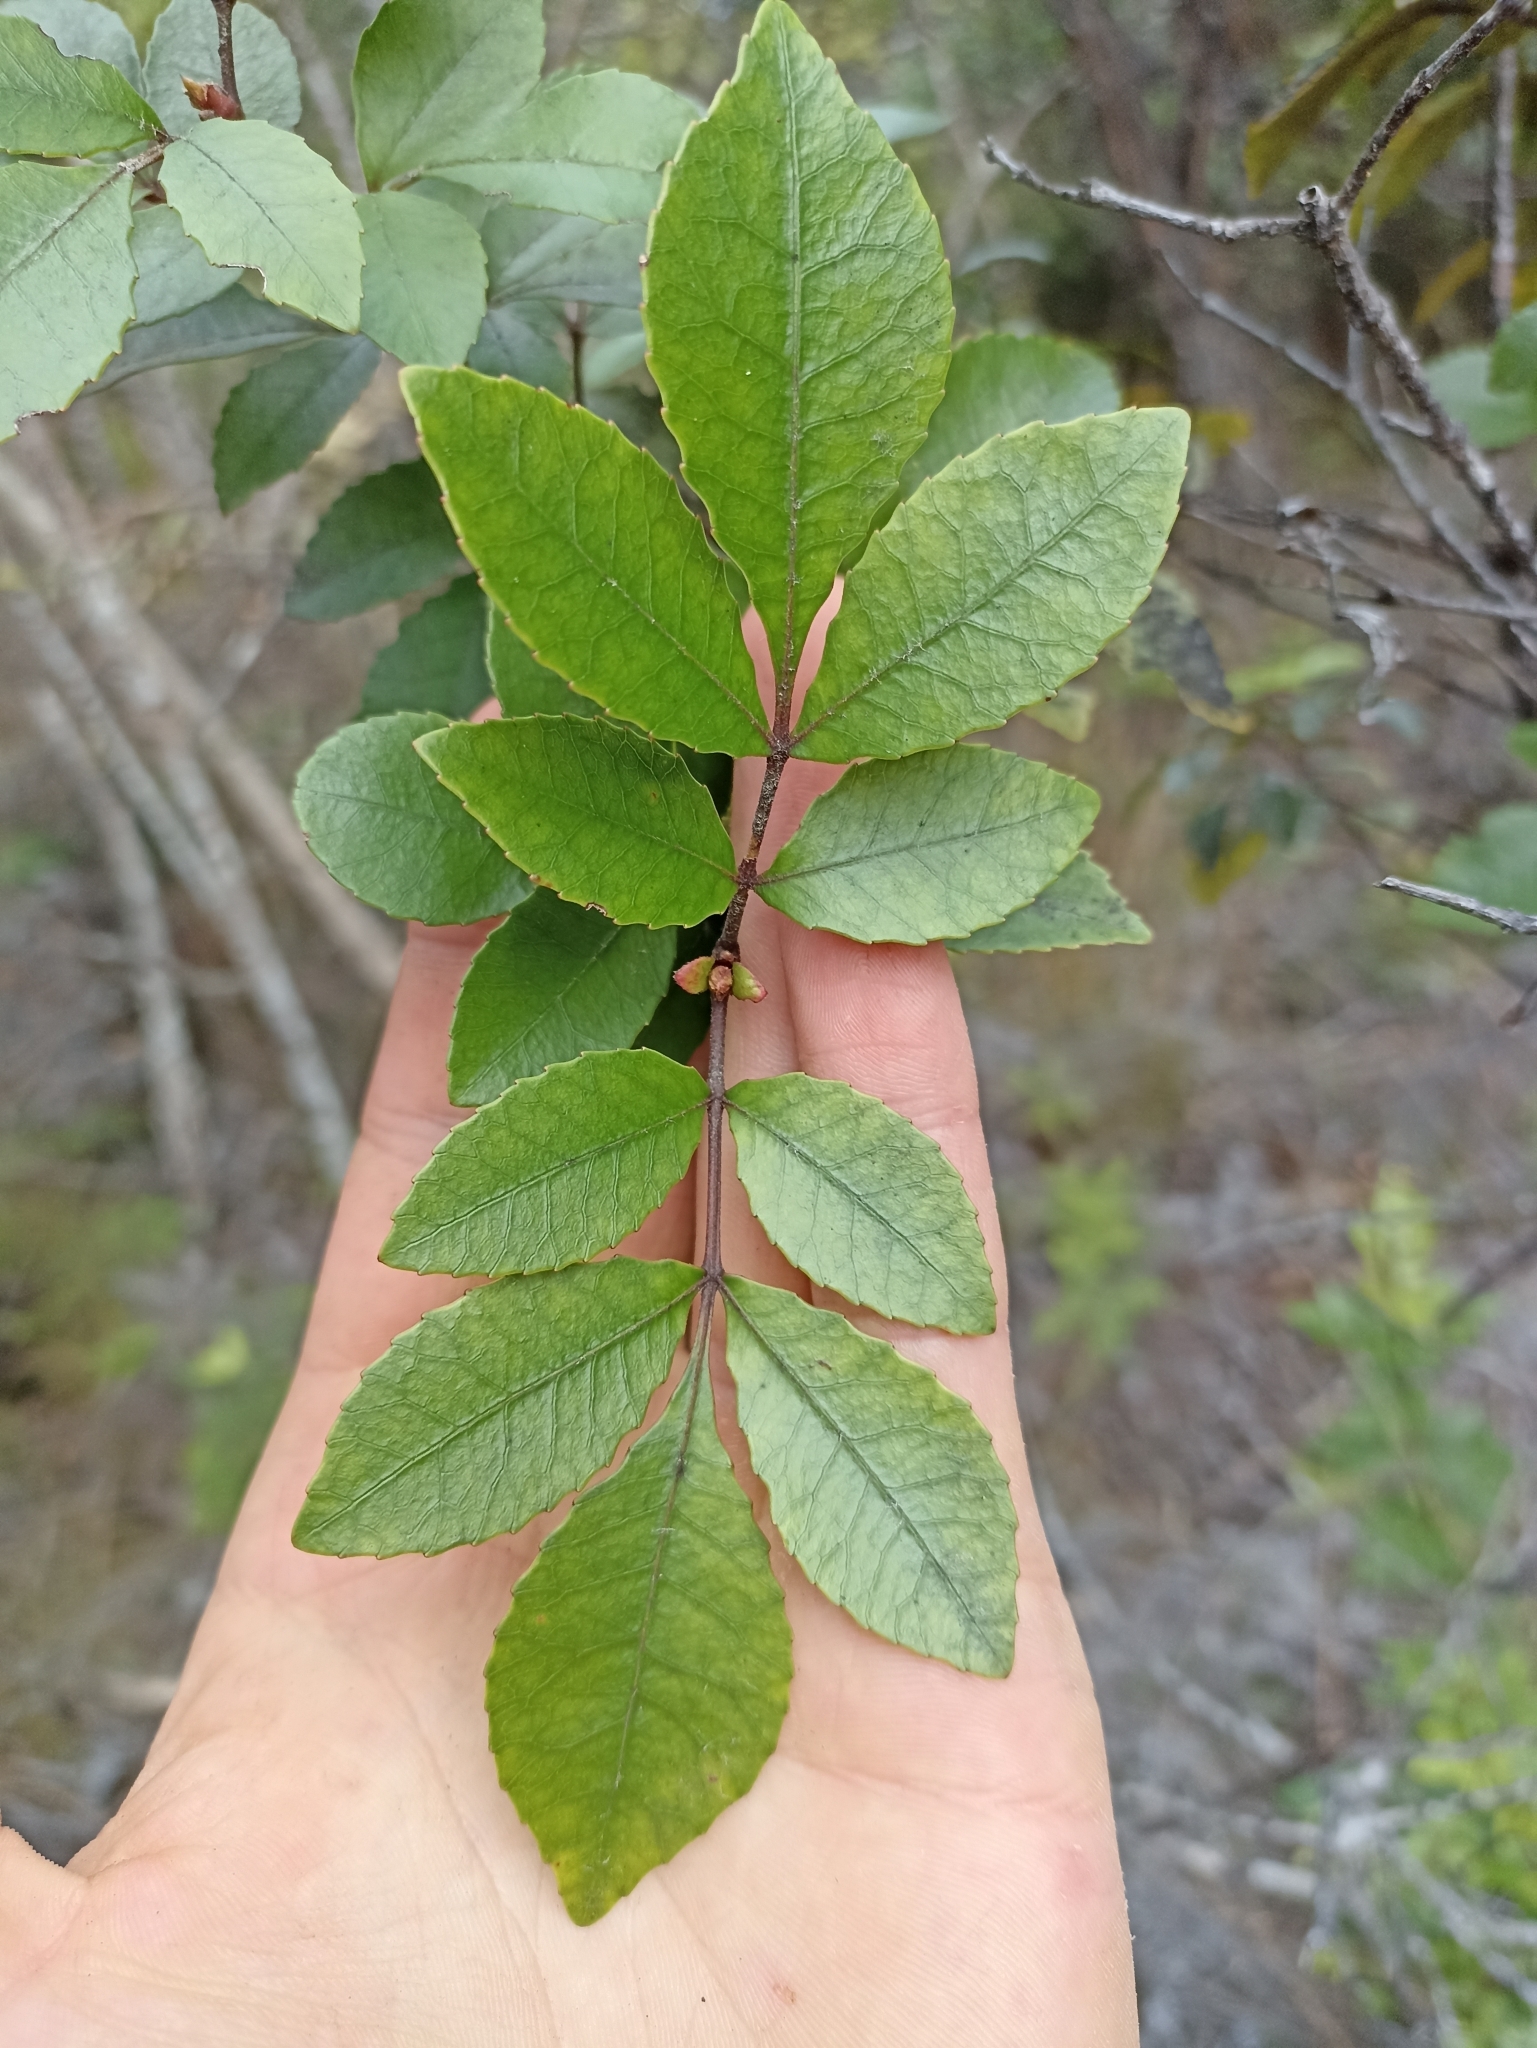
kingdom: Plantae
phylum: Tracheophyta
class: Magnoliopsida
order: Oxalidales
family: Cunoniaceae
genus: Pterophylla
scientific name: Pterophylla sylvicola
